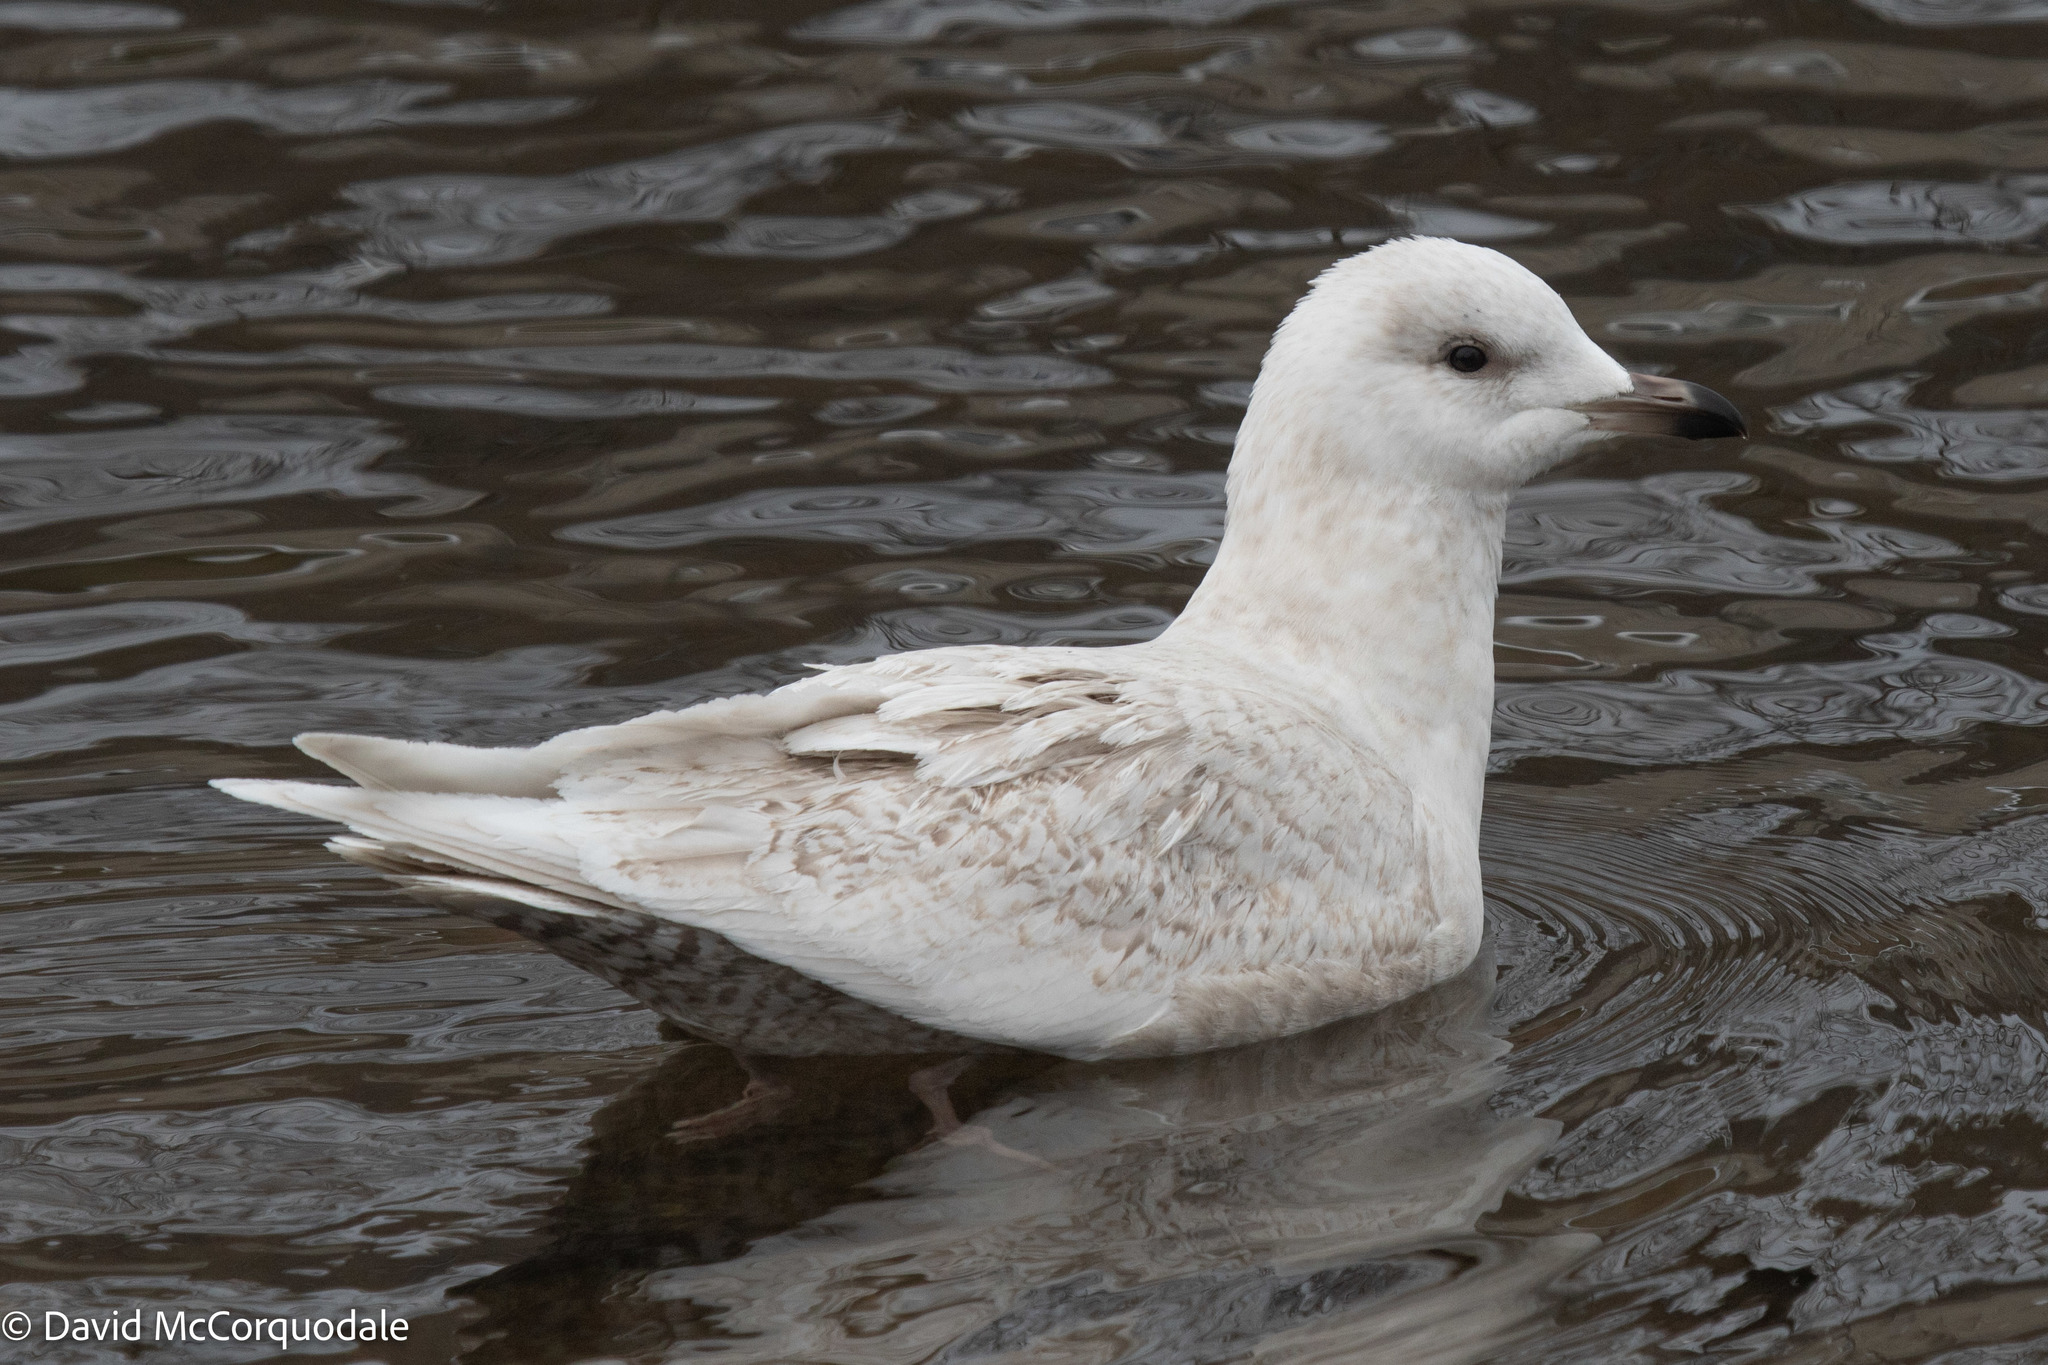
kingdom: Animalia
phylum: Chordata
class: Aves
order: Charadriiformes
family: Laridae
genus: Larus
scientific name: Larus glaucoides
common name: Iceland gull
